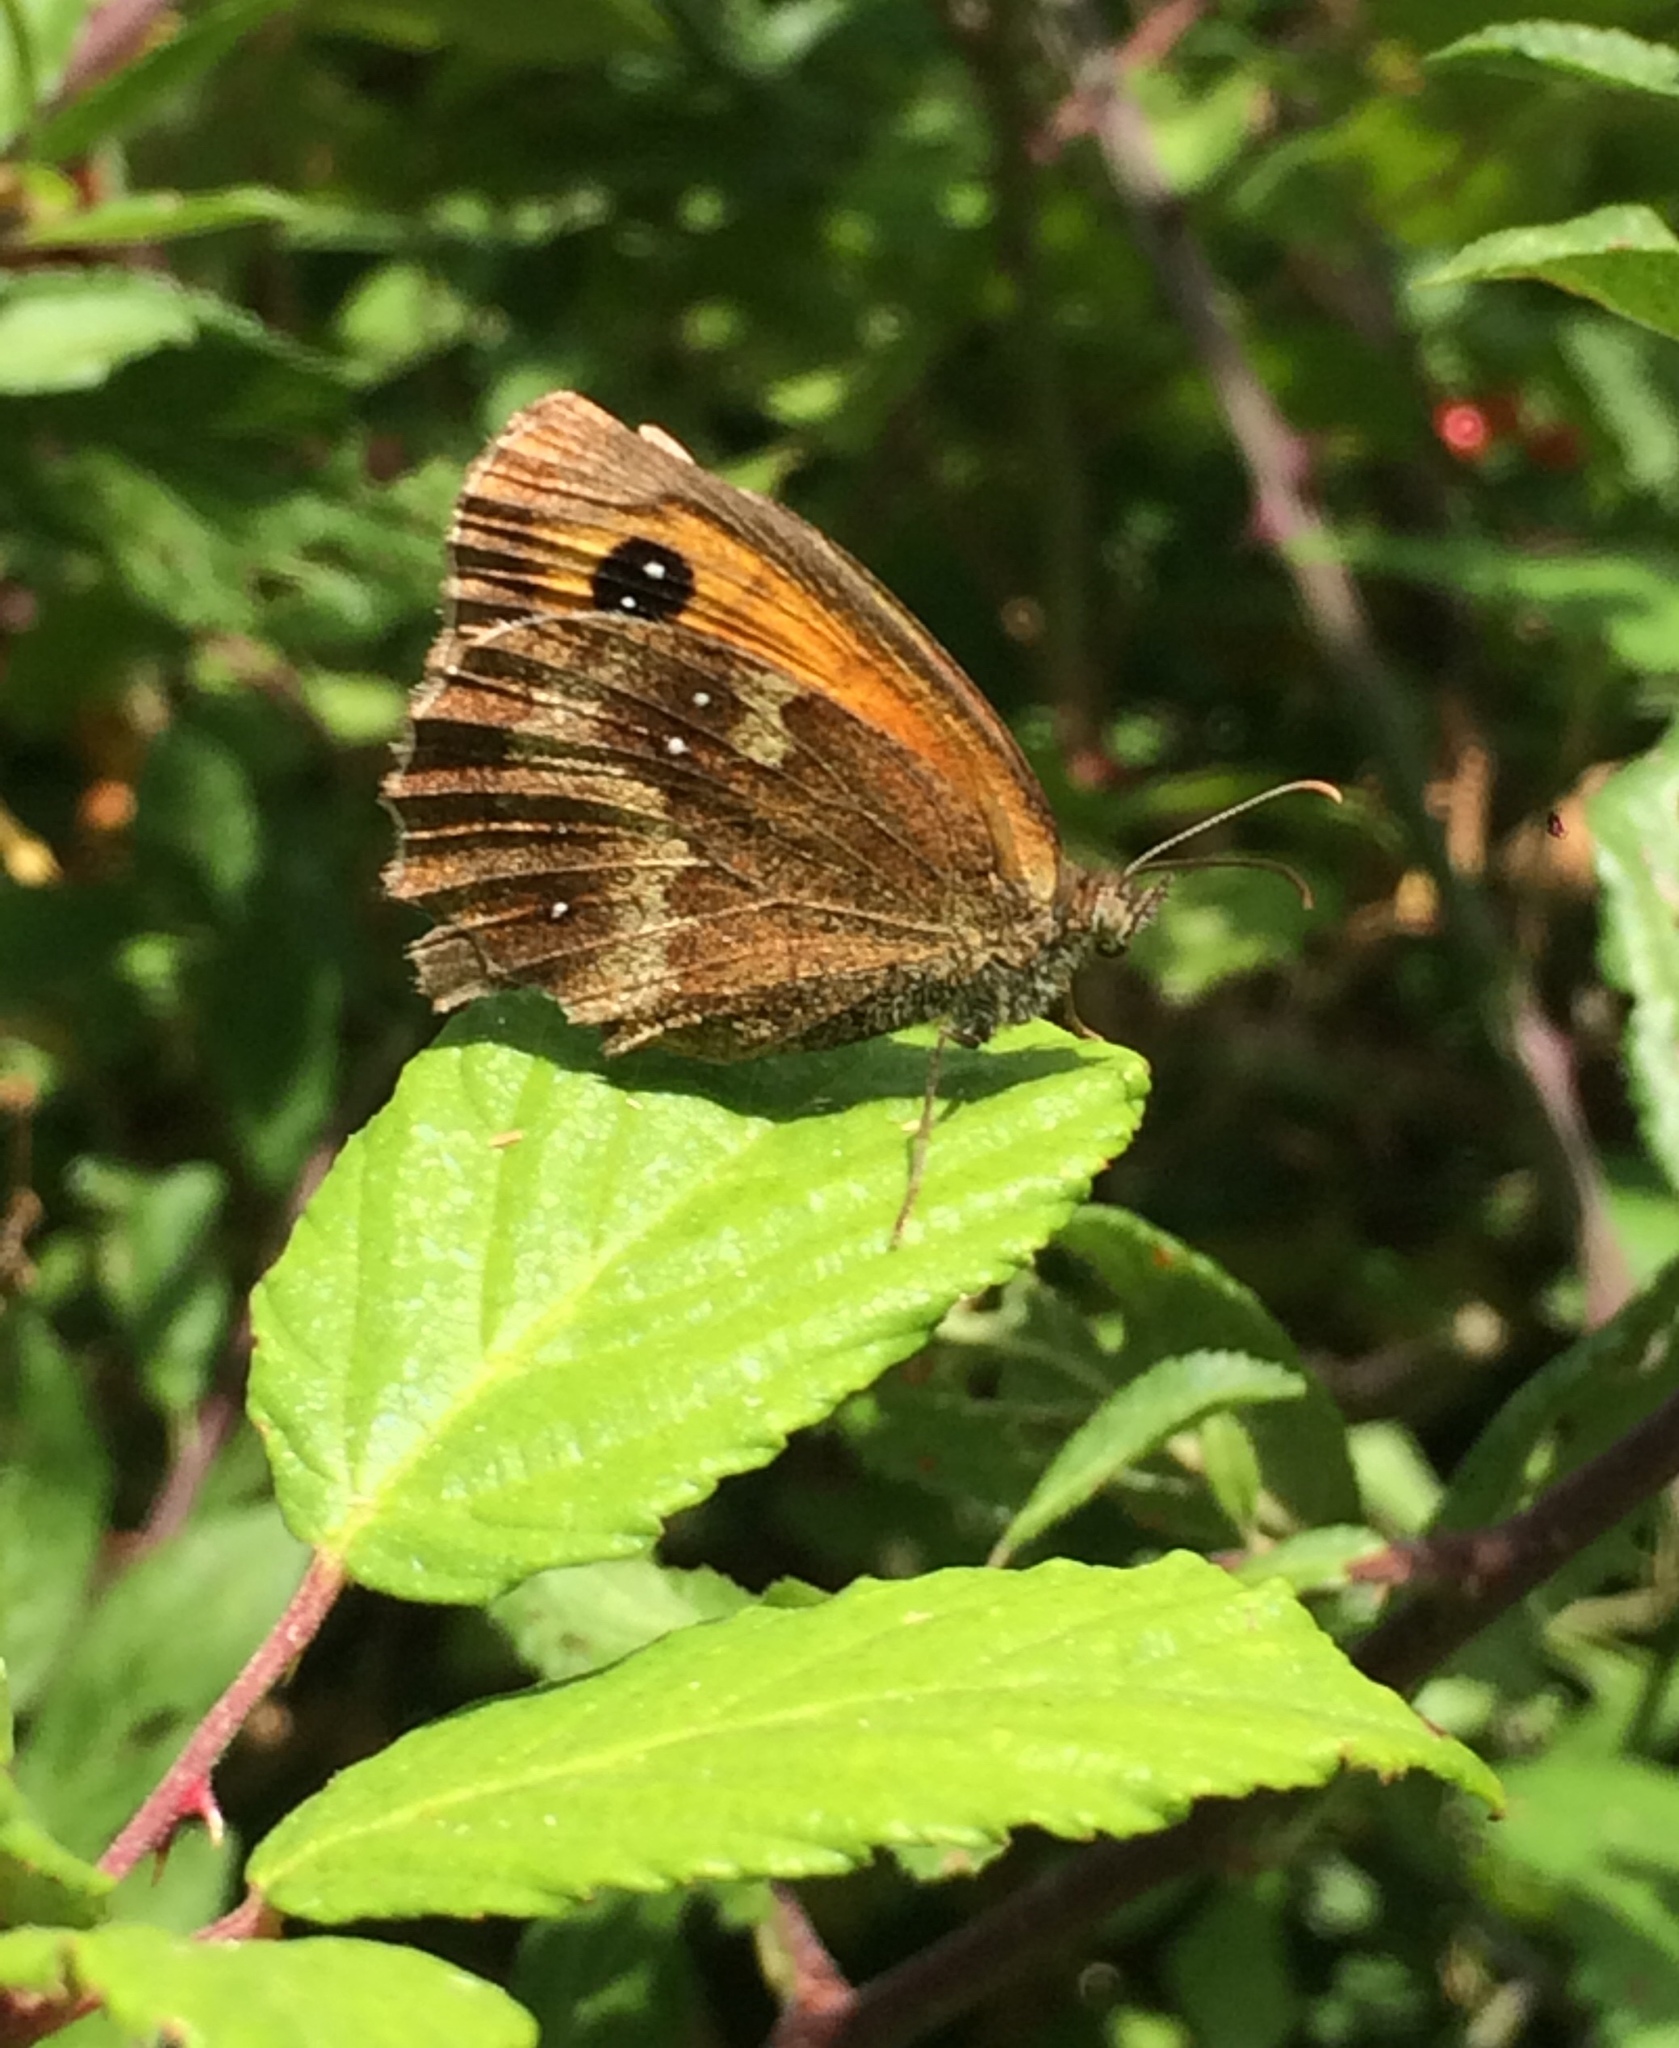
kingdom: Animalia
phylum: Arthropoda
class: Insecta
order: Lepidoptera
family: Nymphalidae
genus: Pyronia
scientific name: Pyronia tithonus
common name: Gatekeeper
